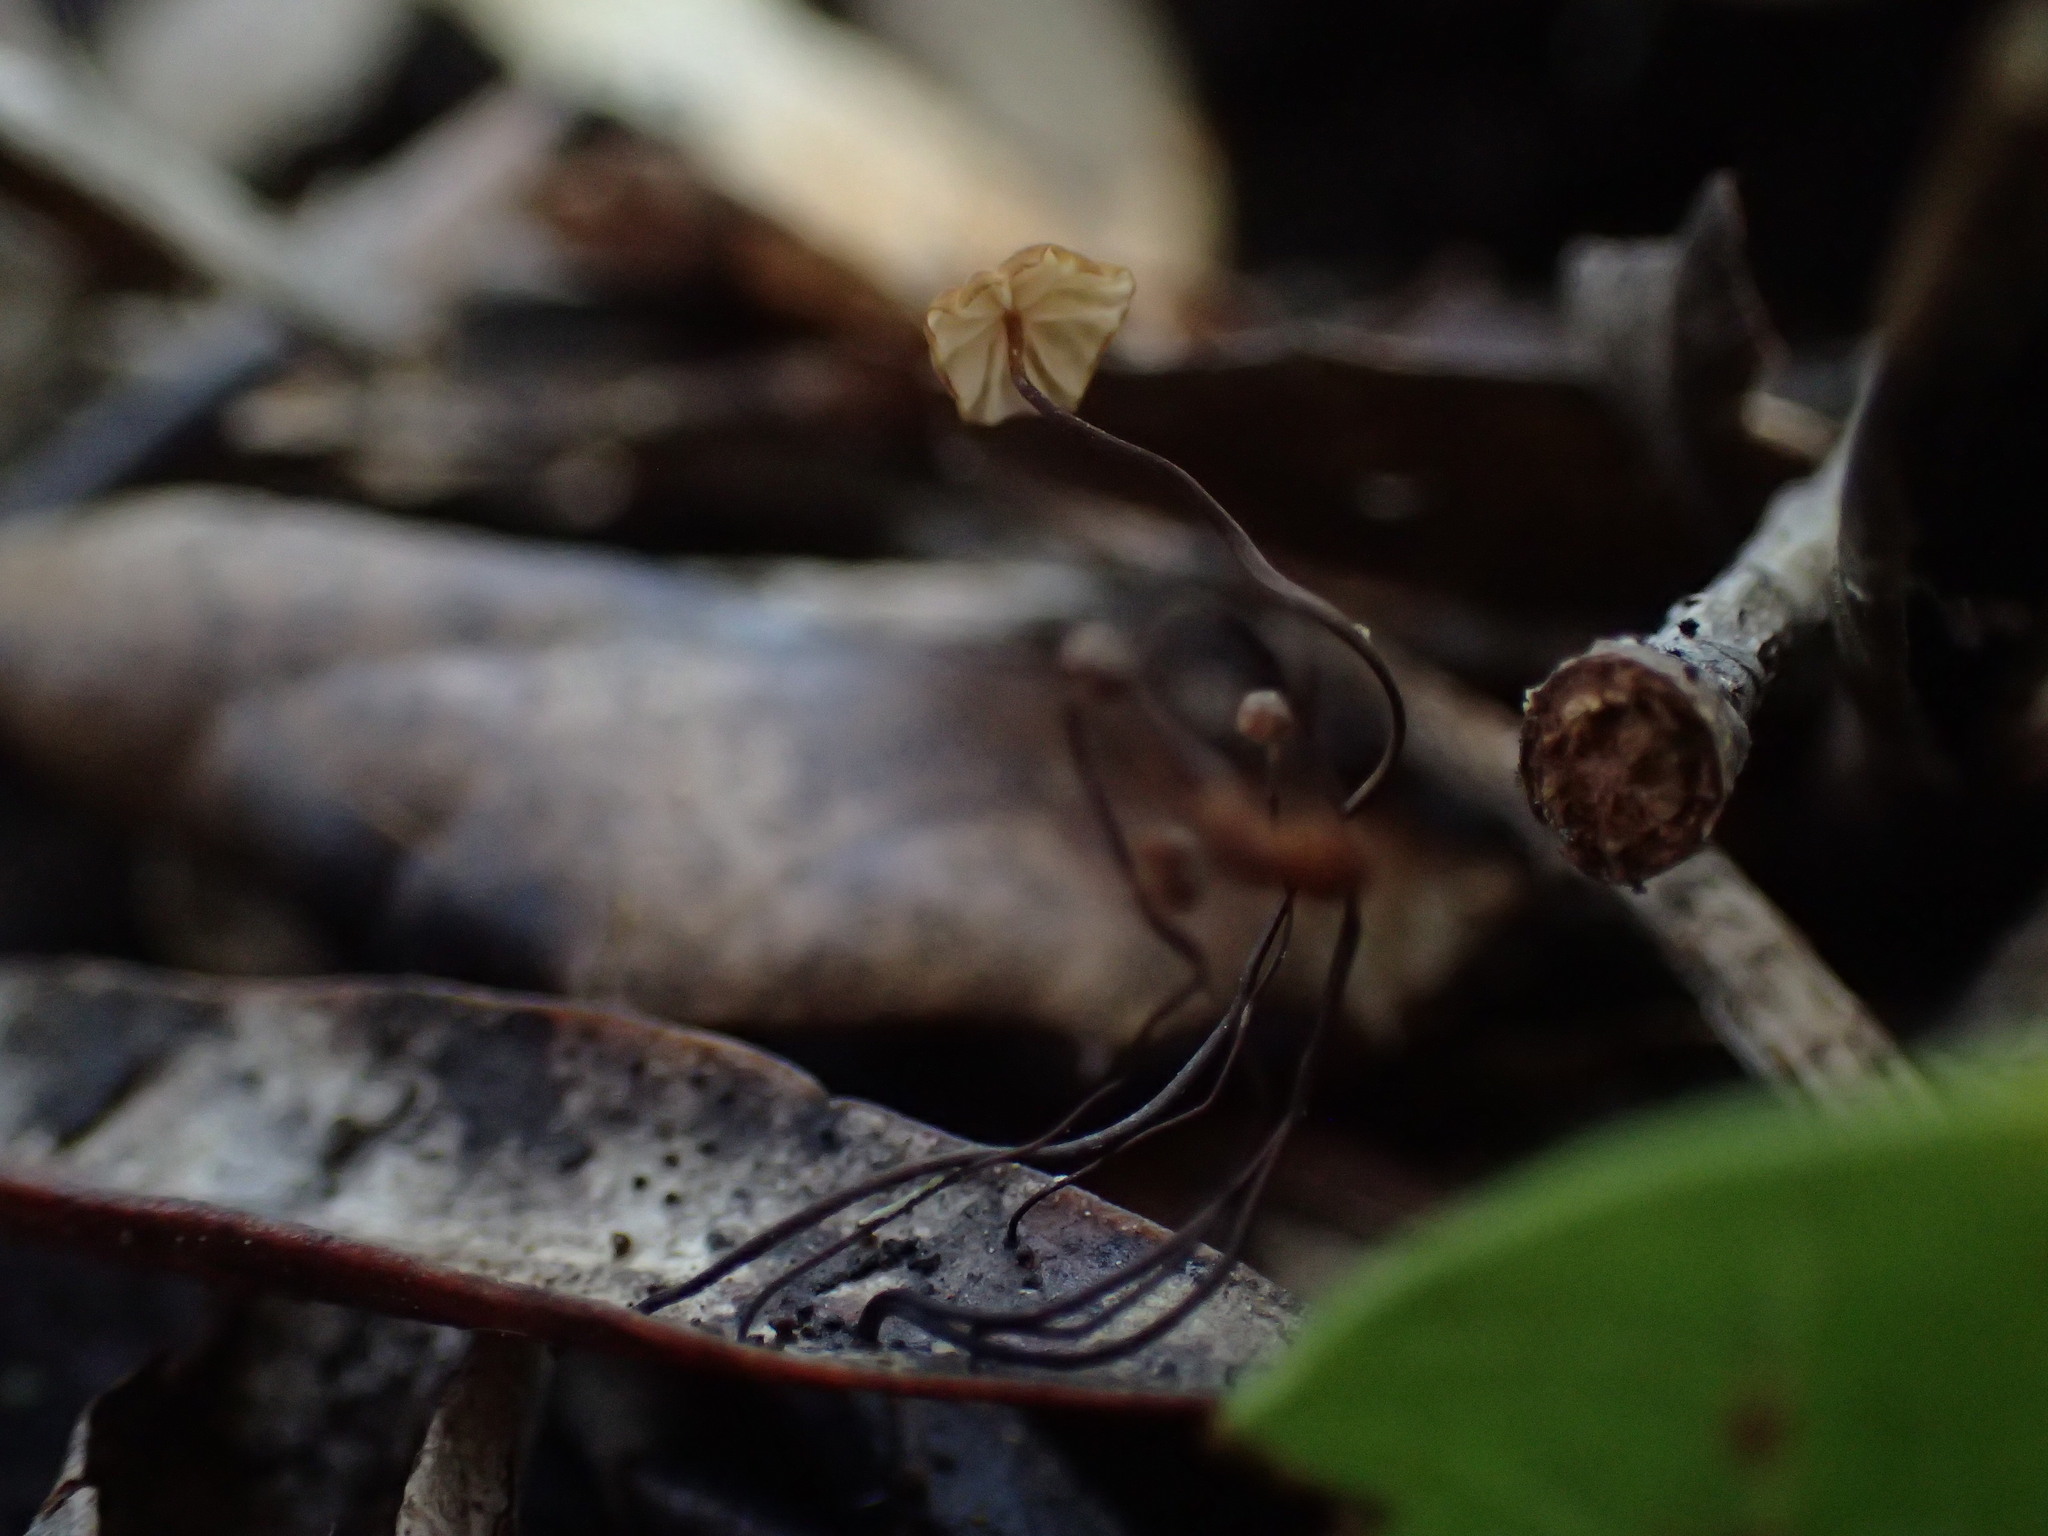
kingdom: Fungi
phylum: Basidiomycota
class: Agaricomycetes
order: Agaricales
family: Physalacriaceae
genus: Cryptomarasmius
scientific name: Cryptomarasmius corbariensis
